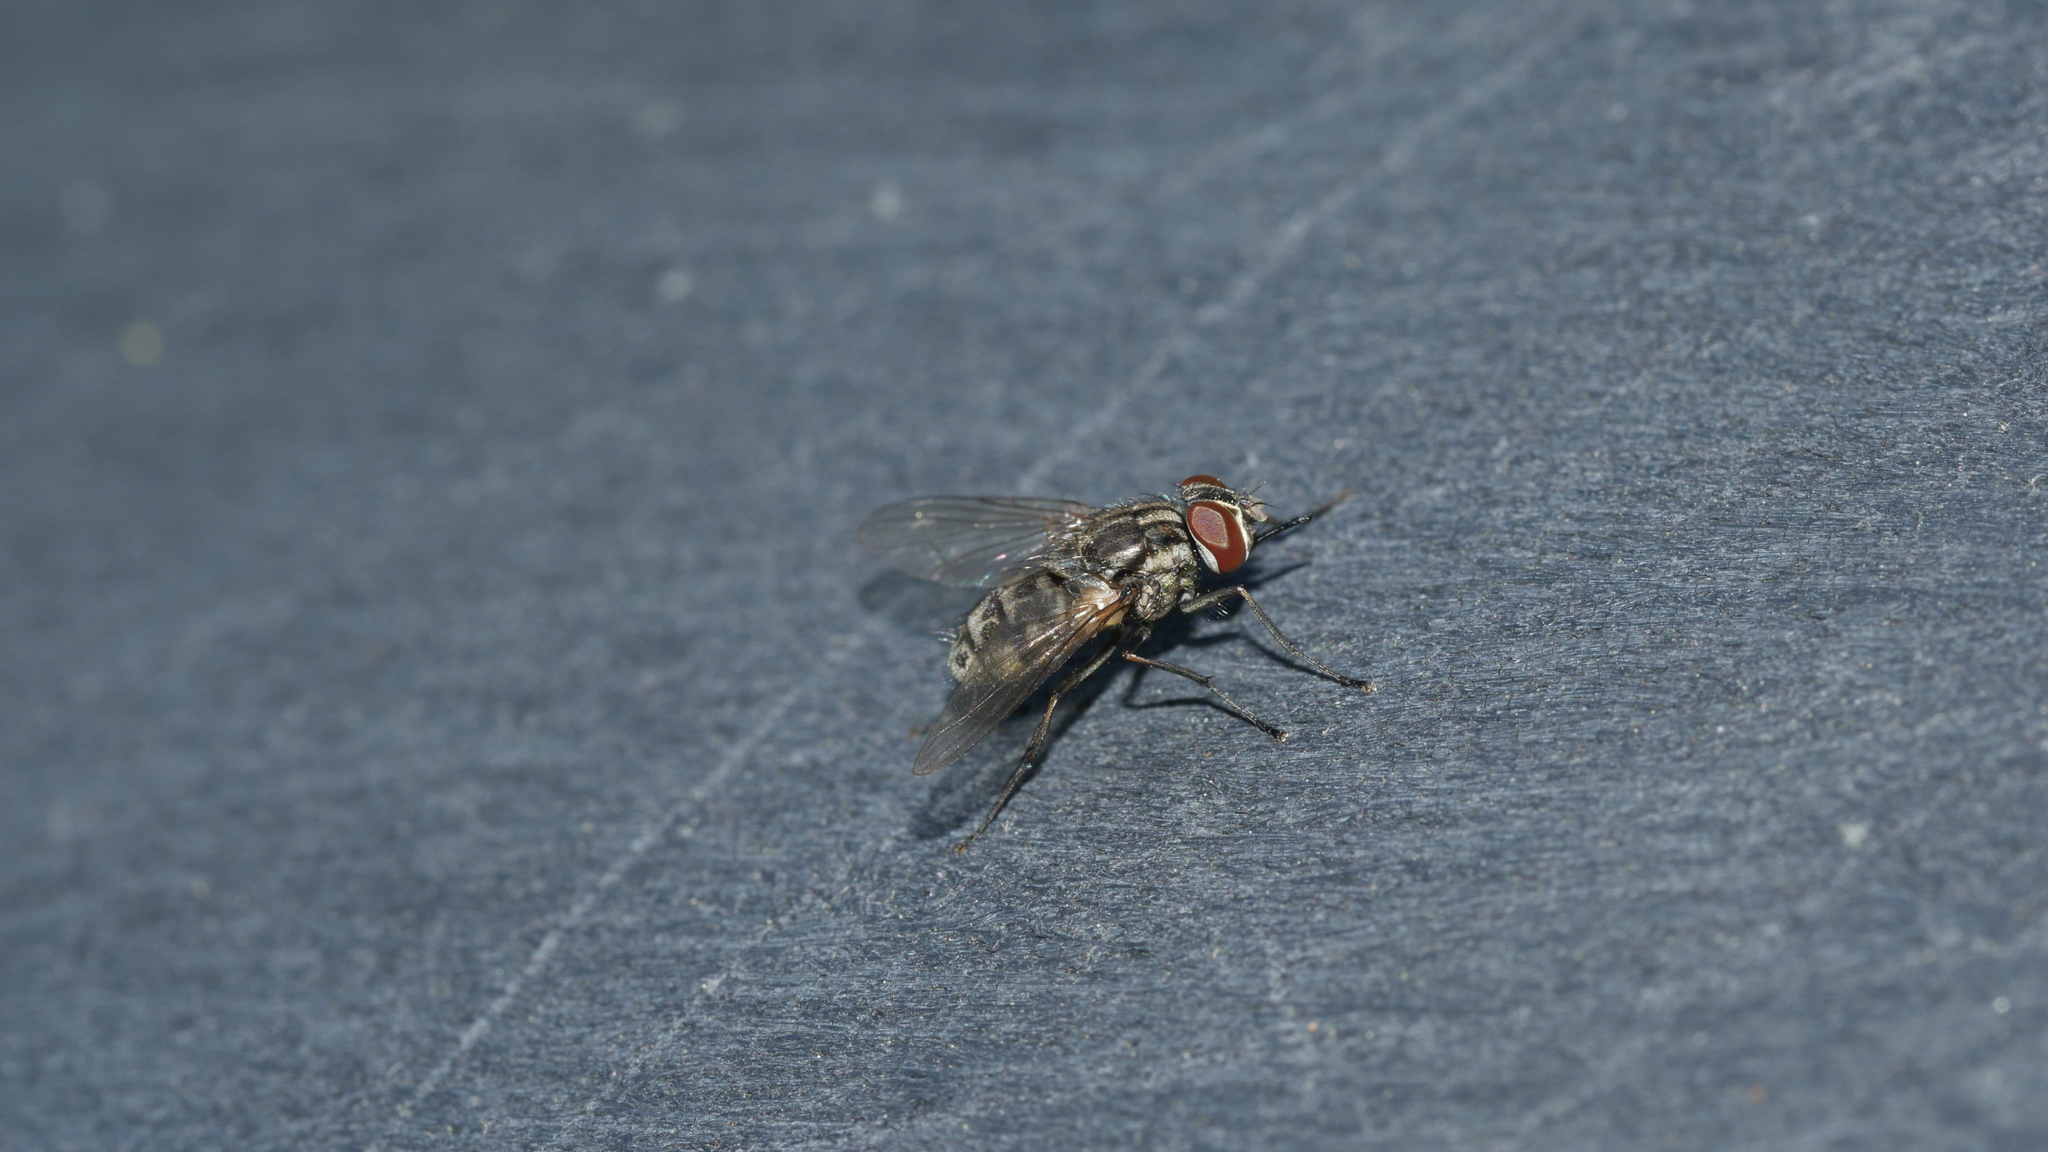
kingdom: Animalia
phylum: Arthropoda
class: Insecta
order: Diptera
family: Muscidae
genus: Stomoxys
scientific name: Stomoxys calcitrans
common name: Stable fly
